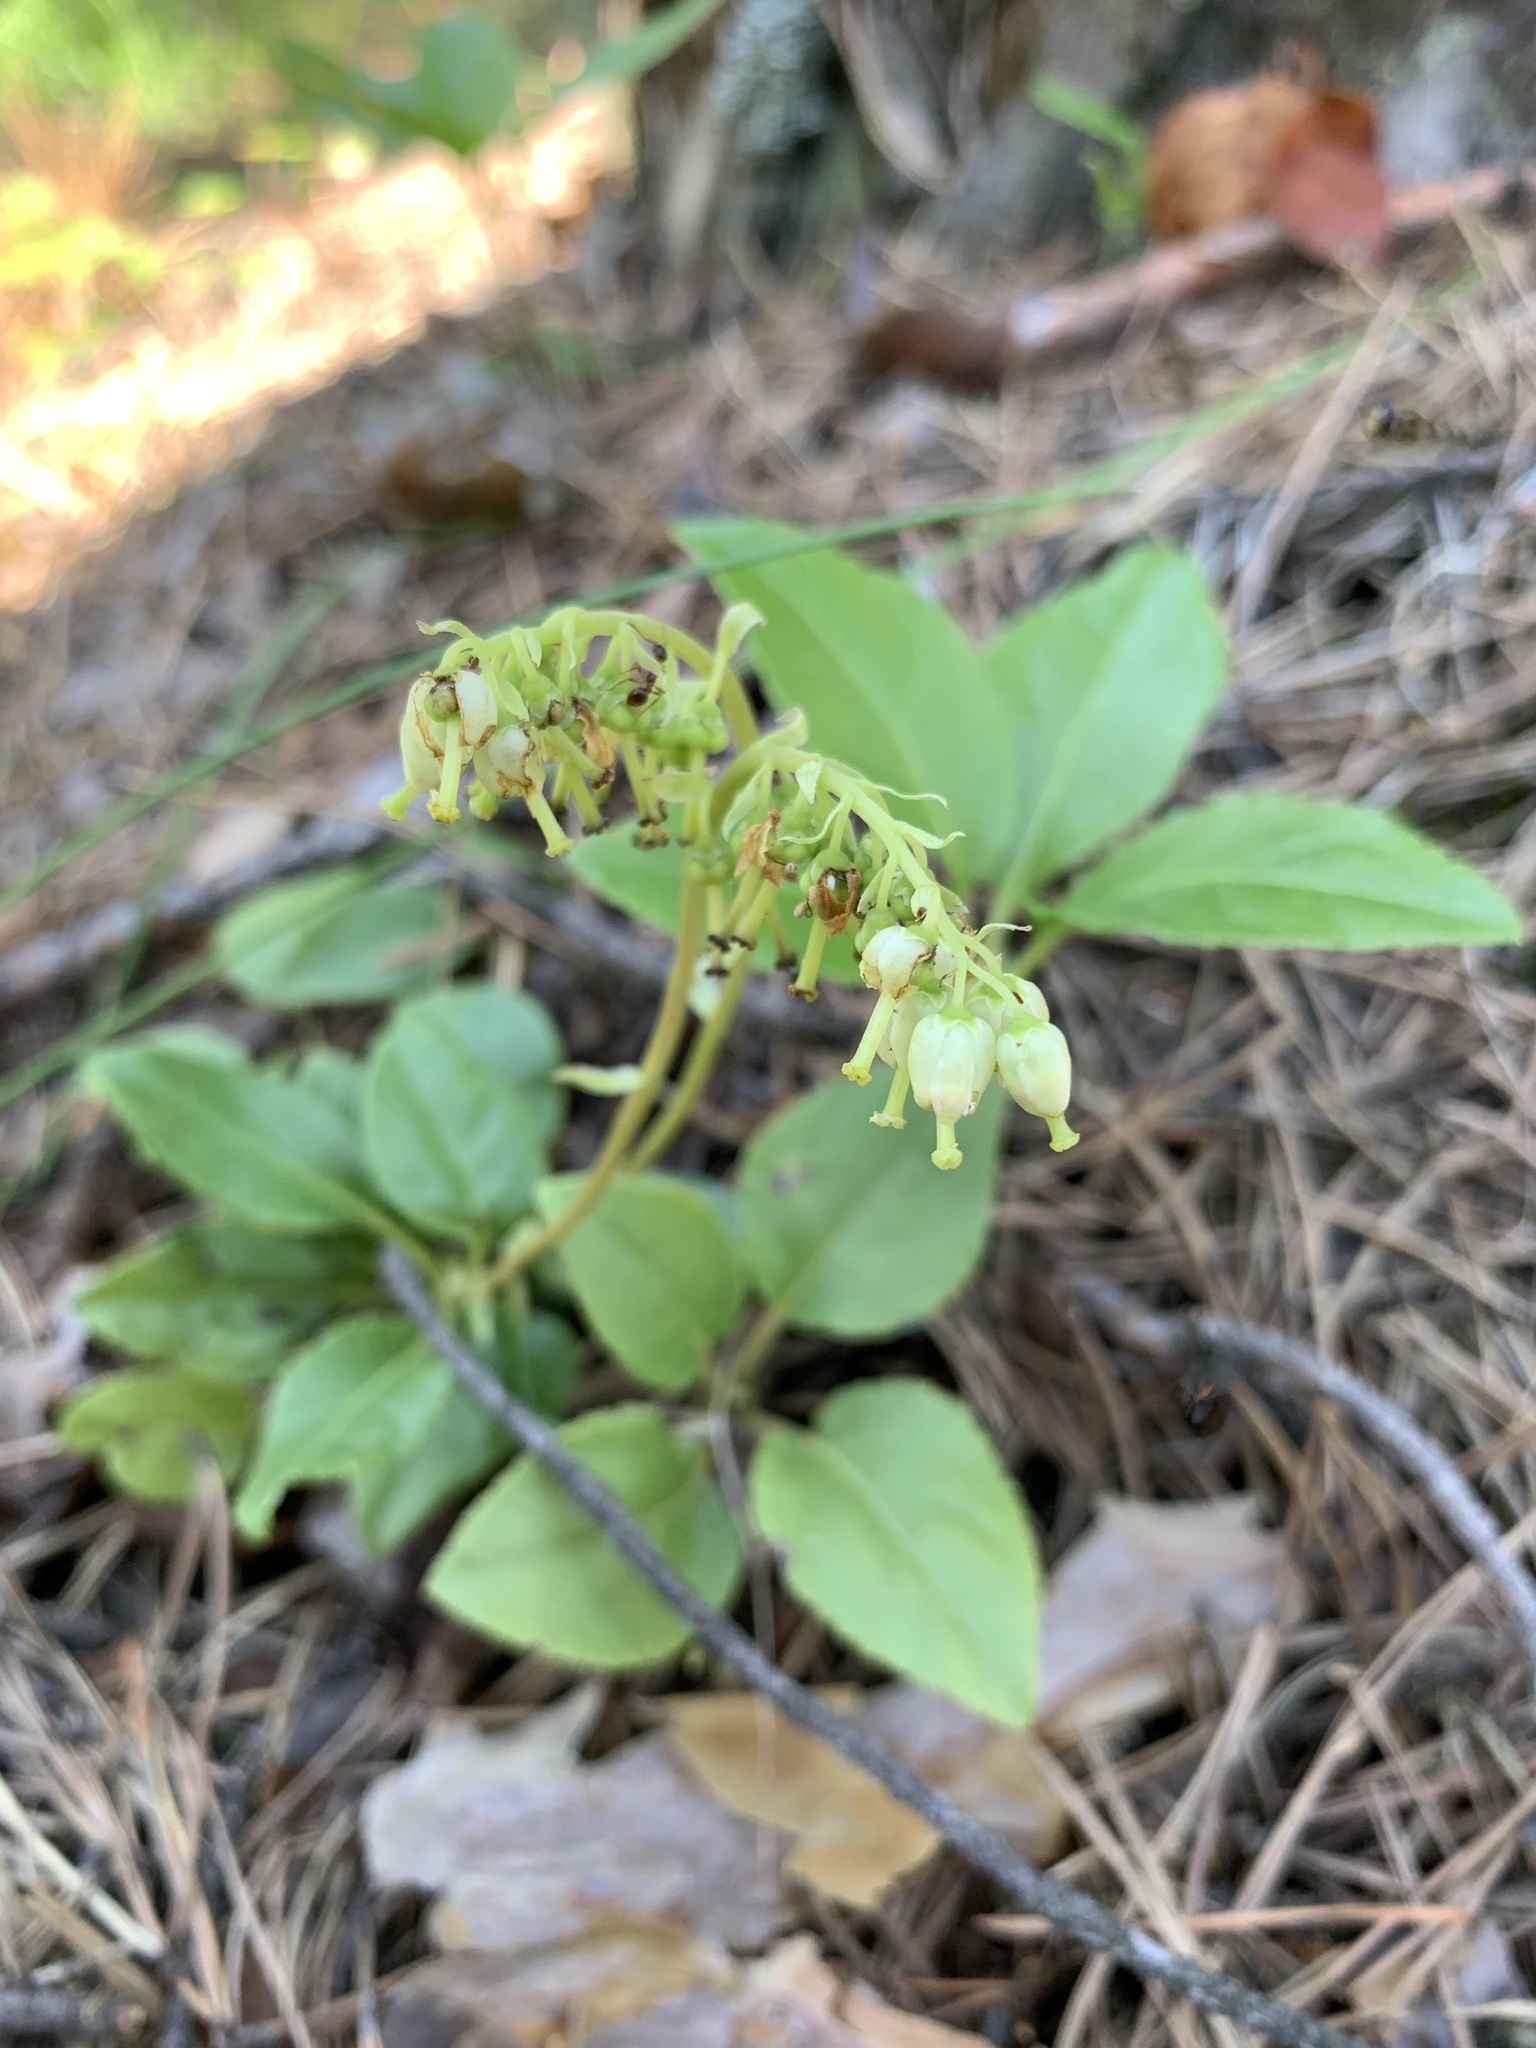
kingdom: Plantae
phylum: Tracheophyta
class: Magnoliopsida
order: Ericales
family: Ericaceae
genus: Orthilia
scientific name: Orthilia secunda
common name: One-sided orthilia
